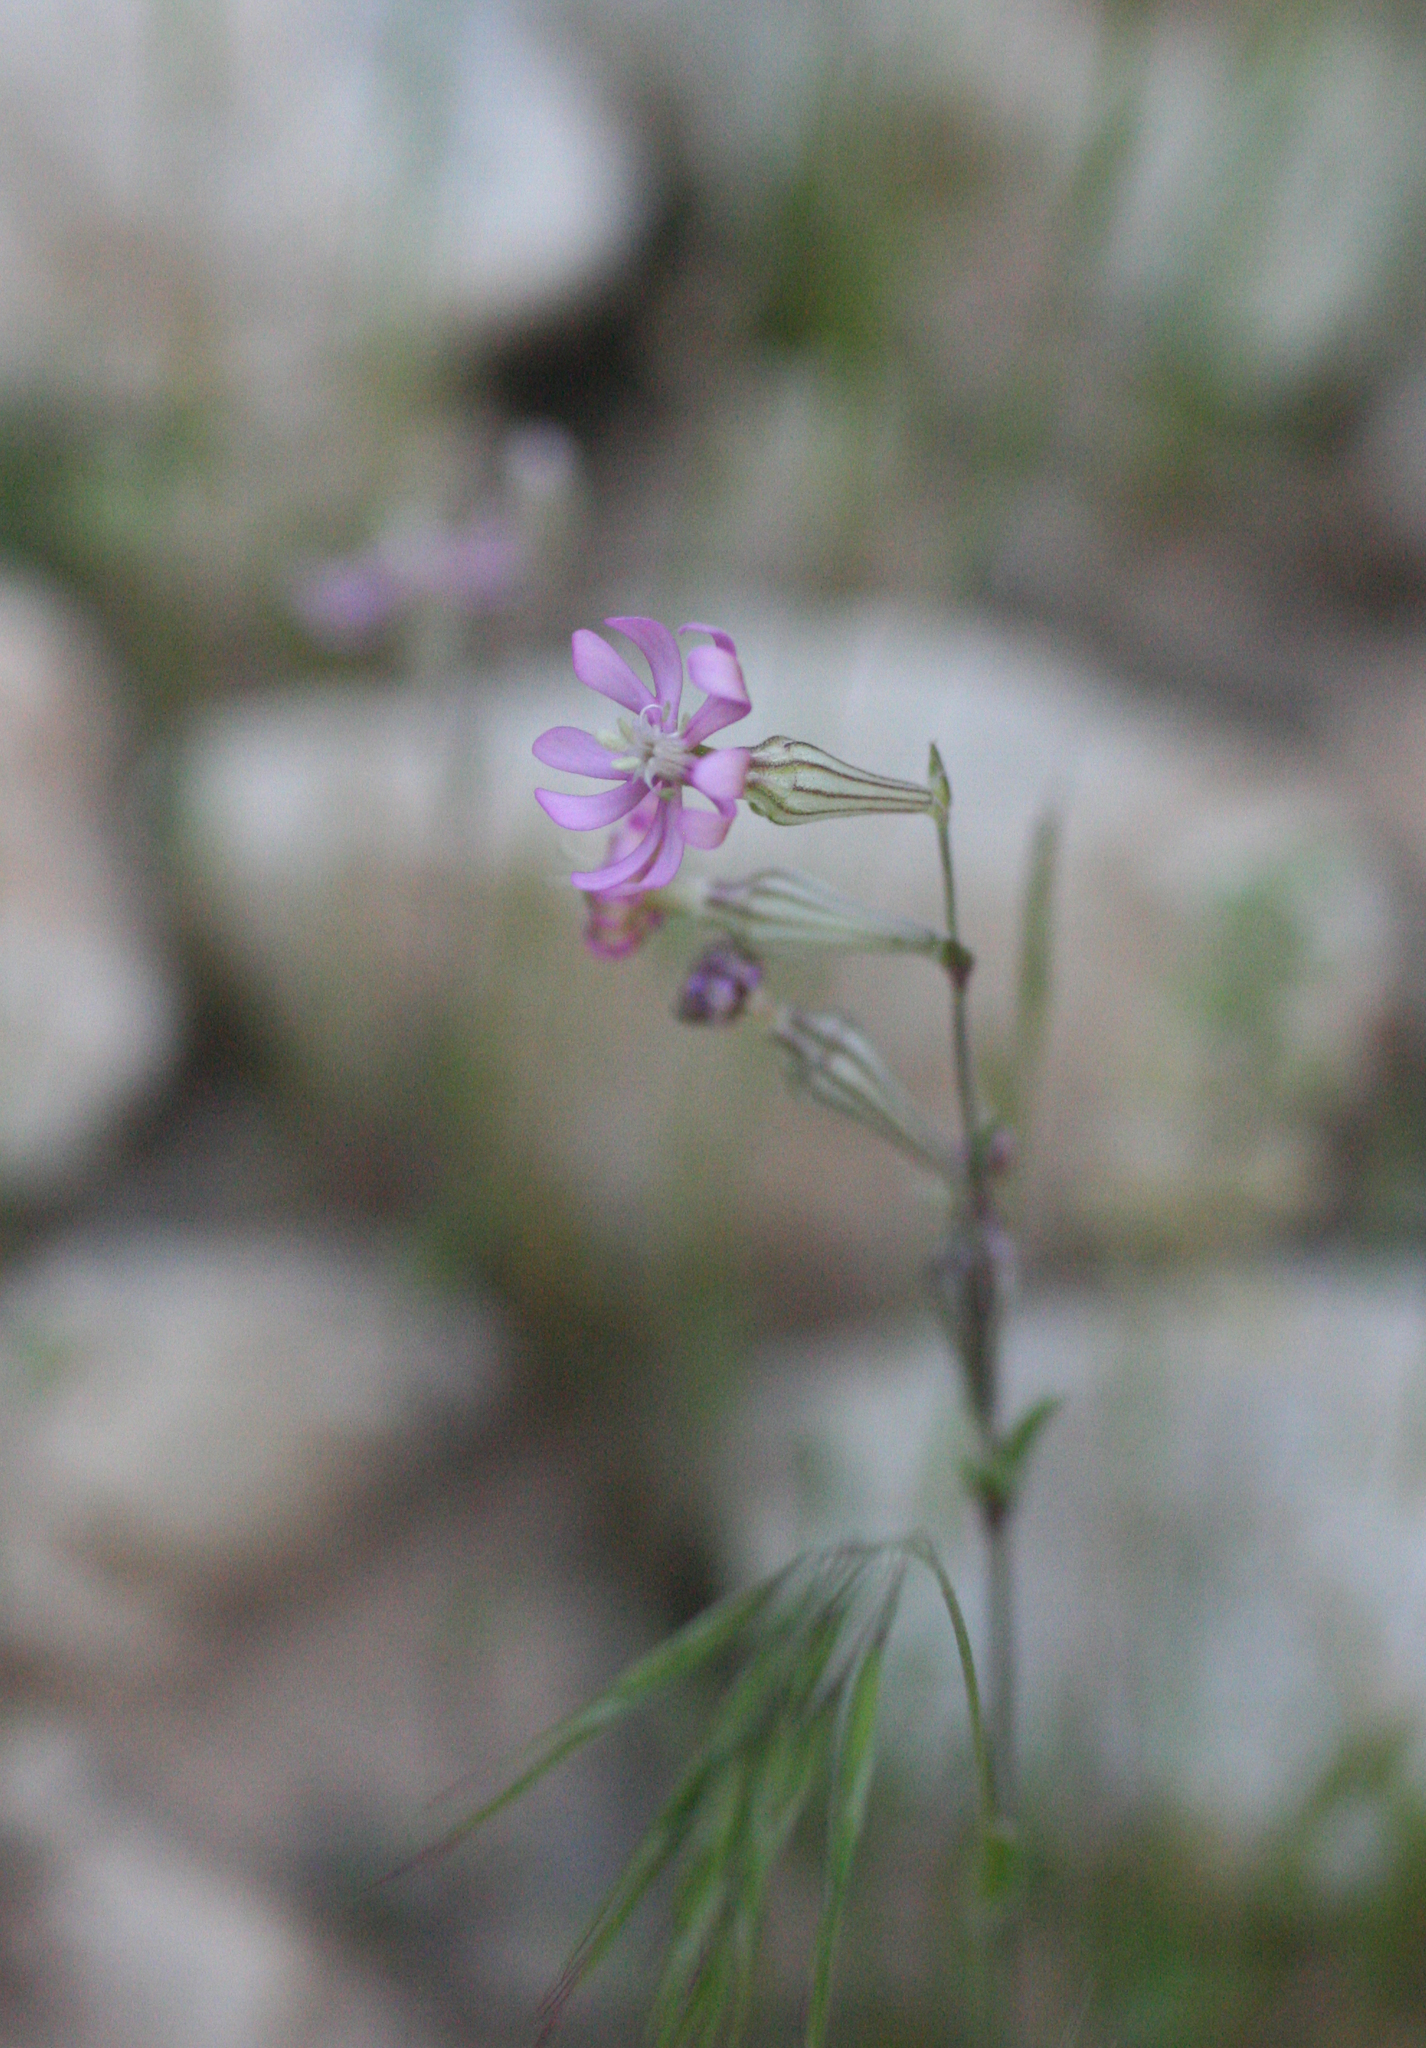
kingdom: Plantae
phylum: Tracheophyta
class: Magnoliopsida
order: Caryophyllales
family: Caryophyllaceae
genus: Silene
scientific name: Silene colorata
